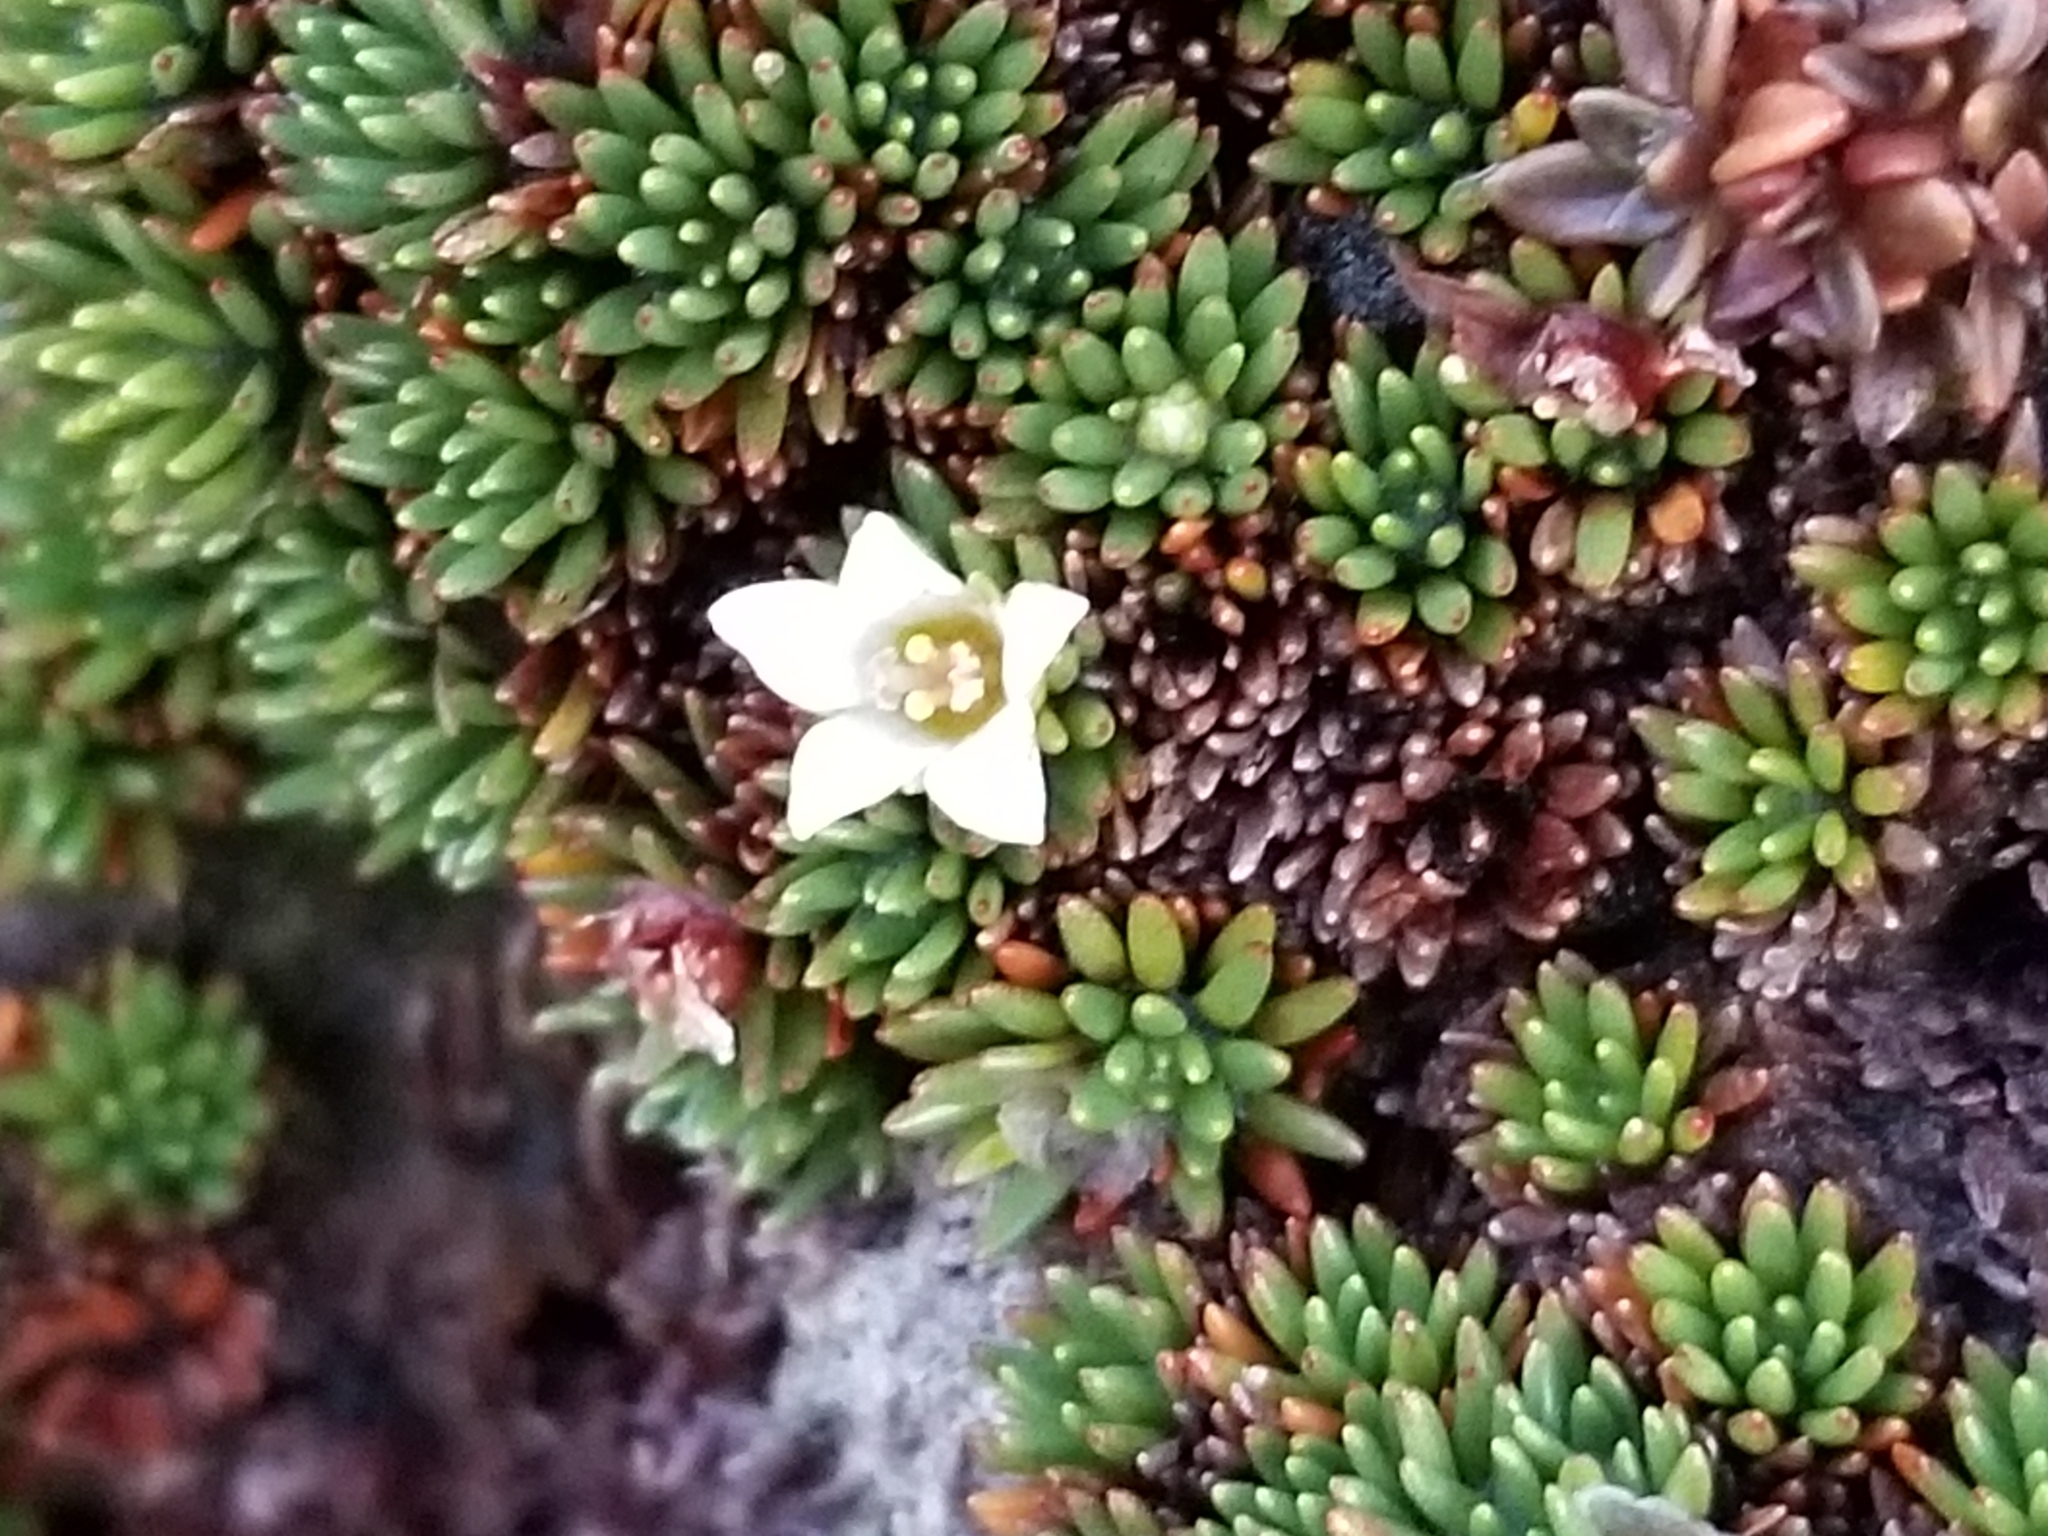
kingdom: Plantae
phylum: Tracheophyta
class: Magnoliopsida
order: Asterales
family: Stylidiaceae
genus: Donatia
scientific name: Donatia novae-zelandiae
